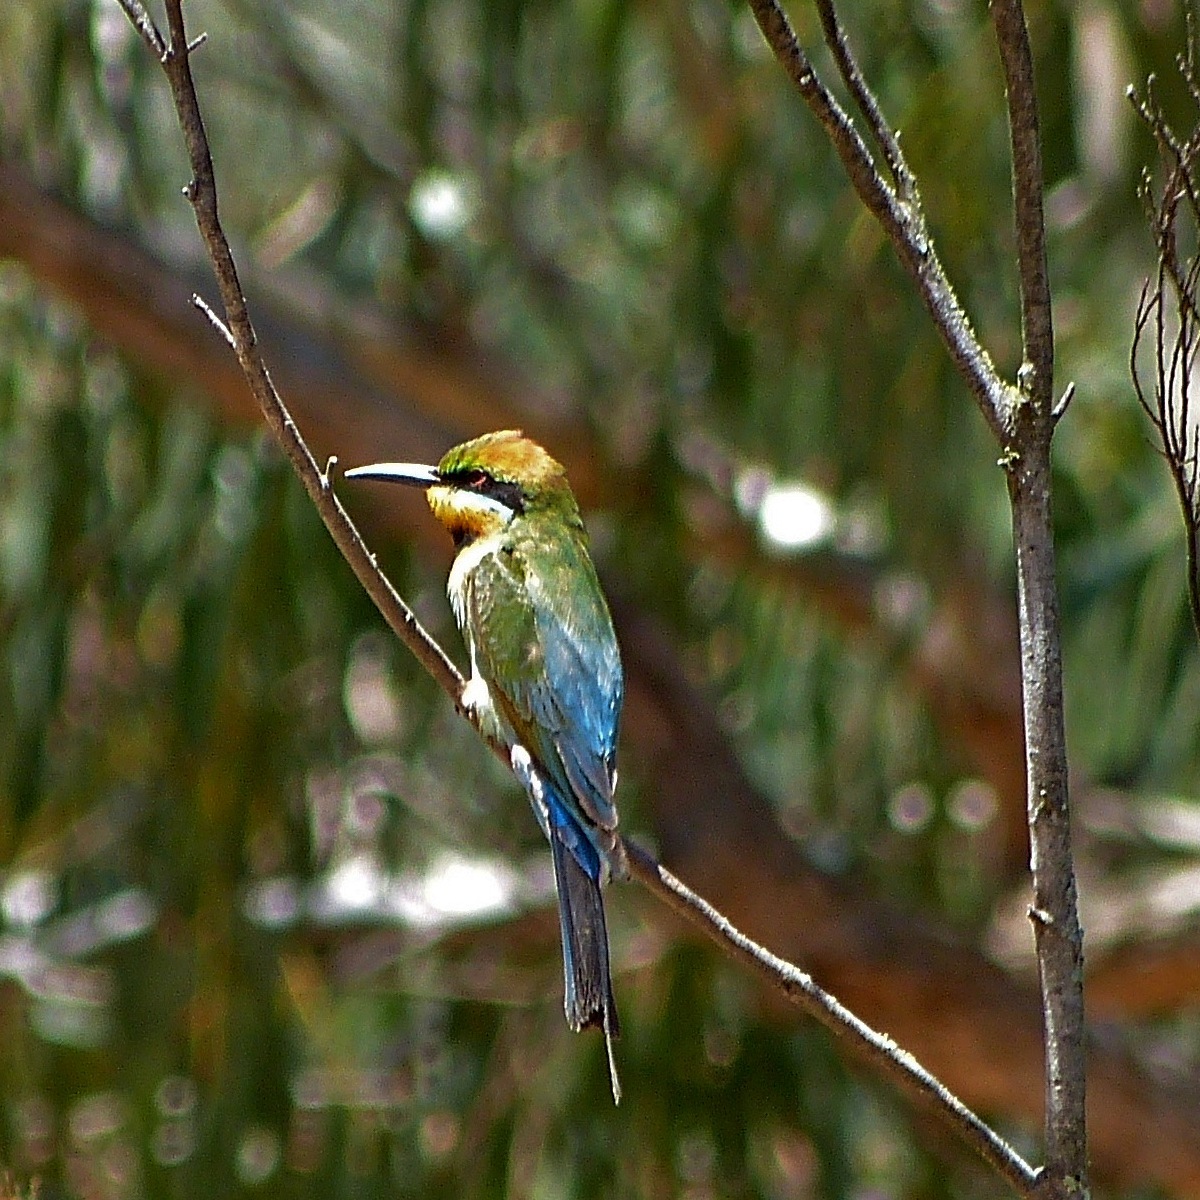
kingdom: Animalia
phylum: Chordata
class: Aves
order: Coraciiformes
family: Meropidae
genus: Merops
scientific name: Merops ornatus
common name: Rainbow bee-eater
